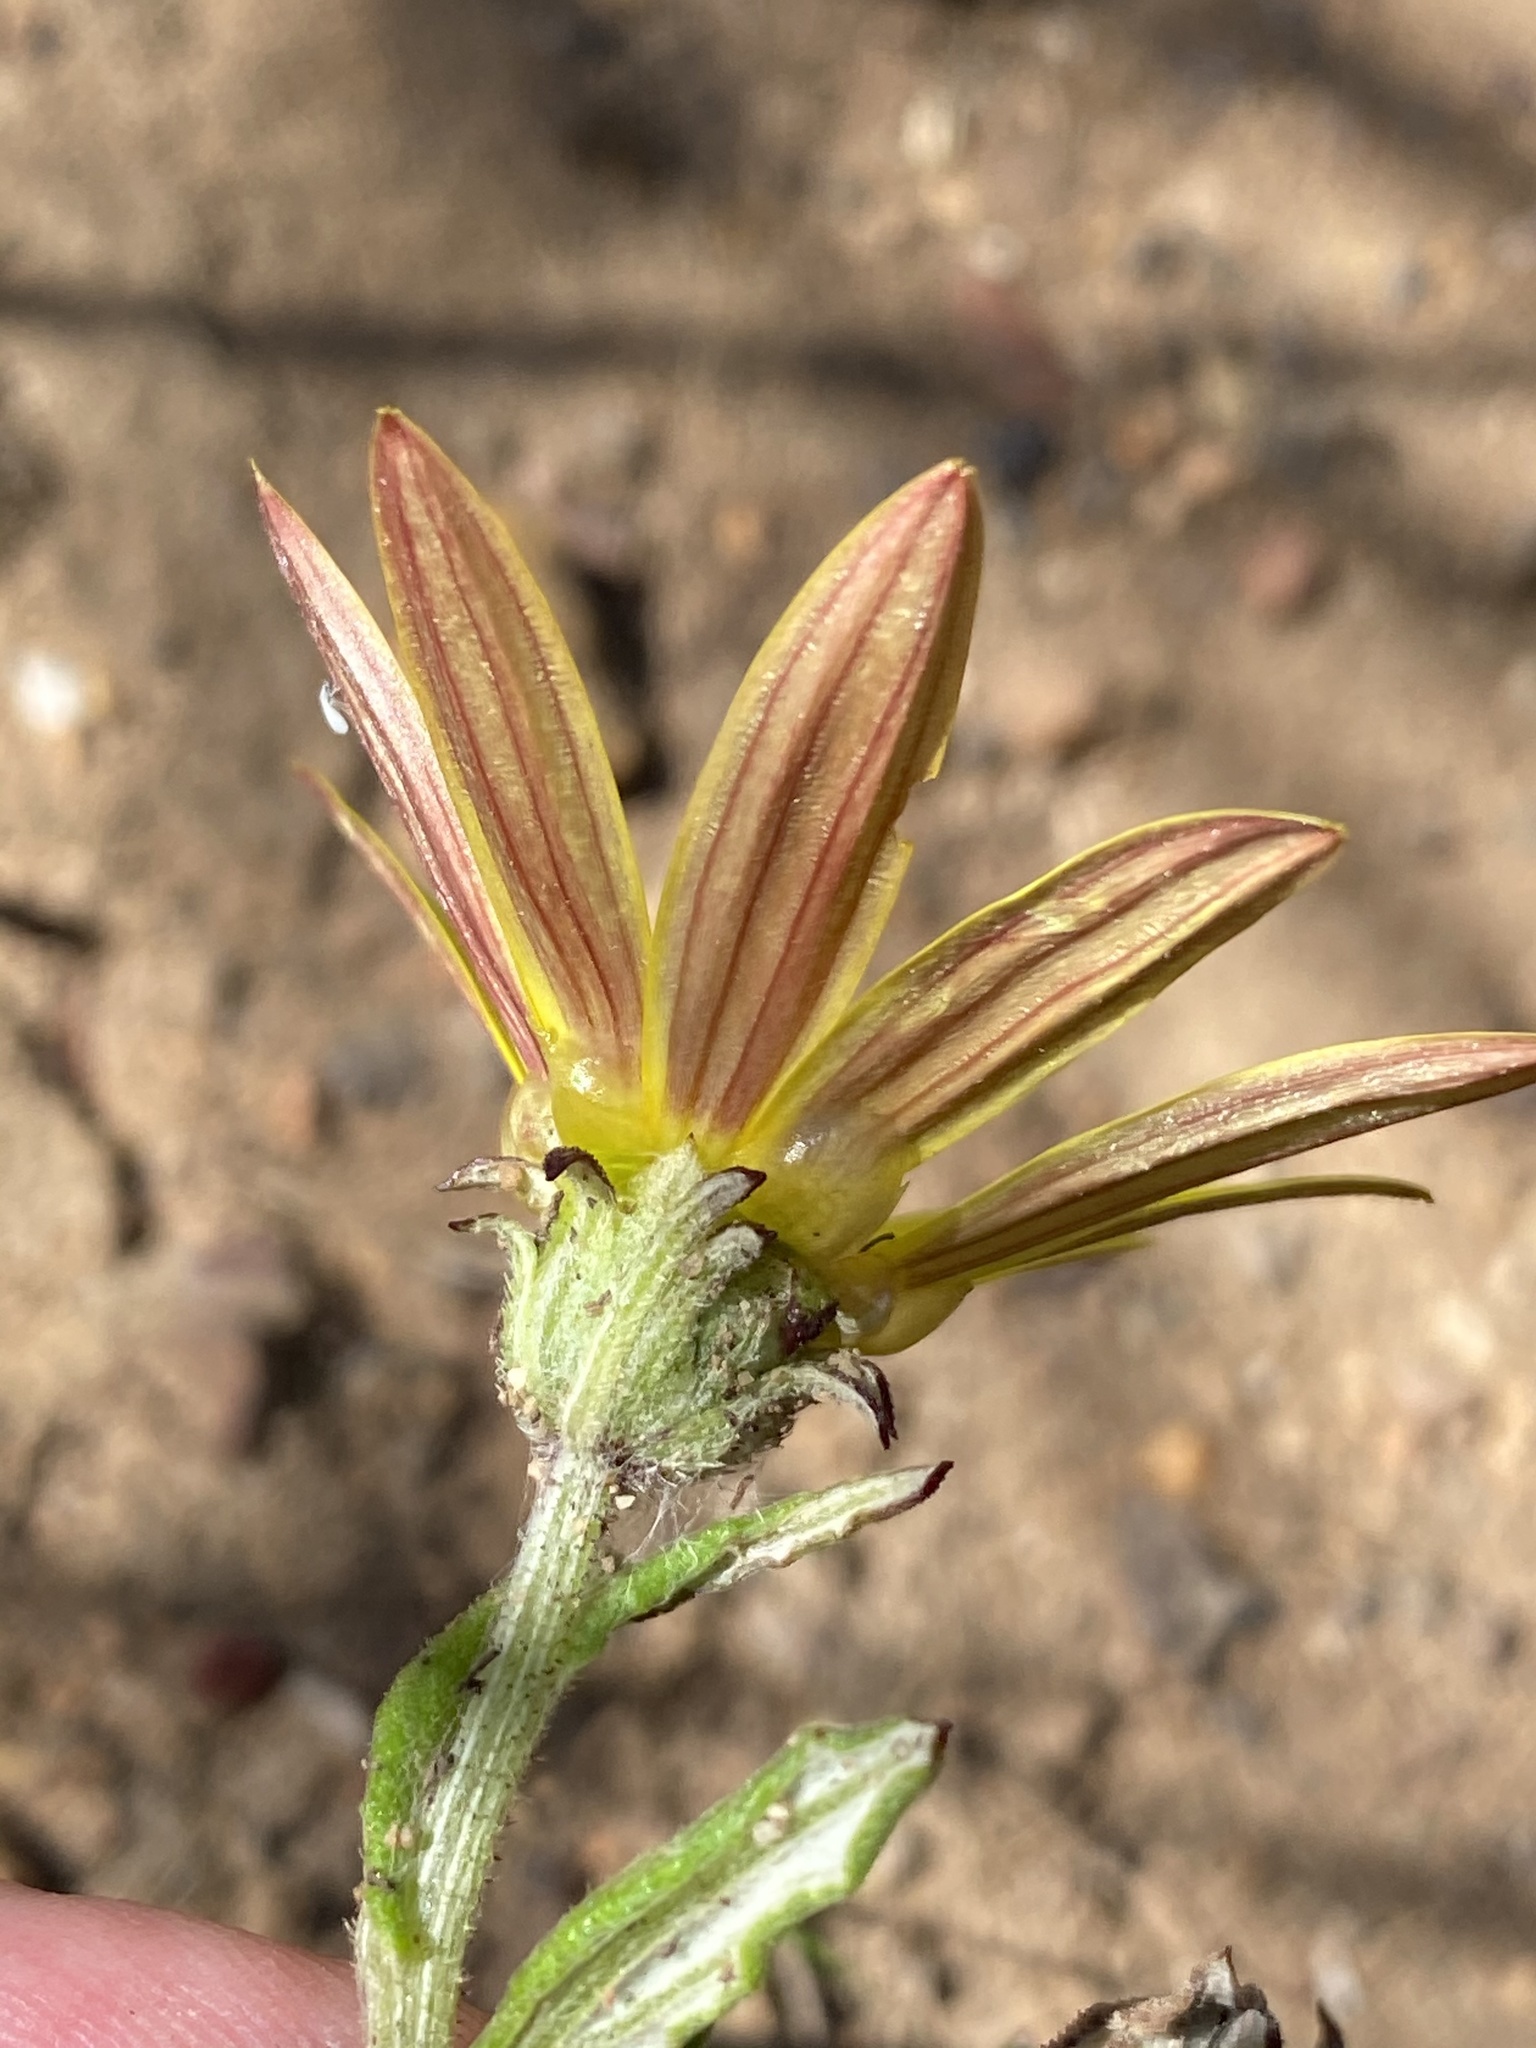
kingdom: Plantae
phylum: Tracheophyta
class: Magnoliopsida
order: Asterales
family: Asteraceae
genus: Arctotis
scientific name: Arctotis scabra
